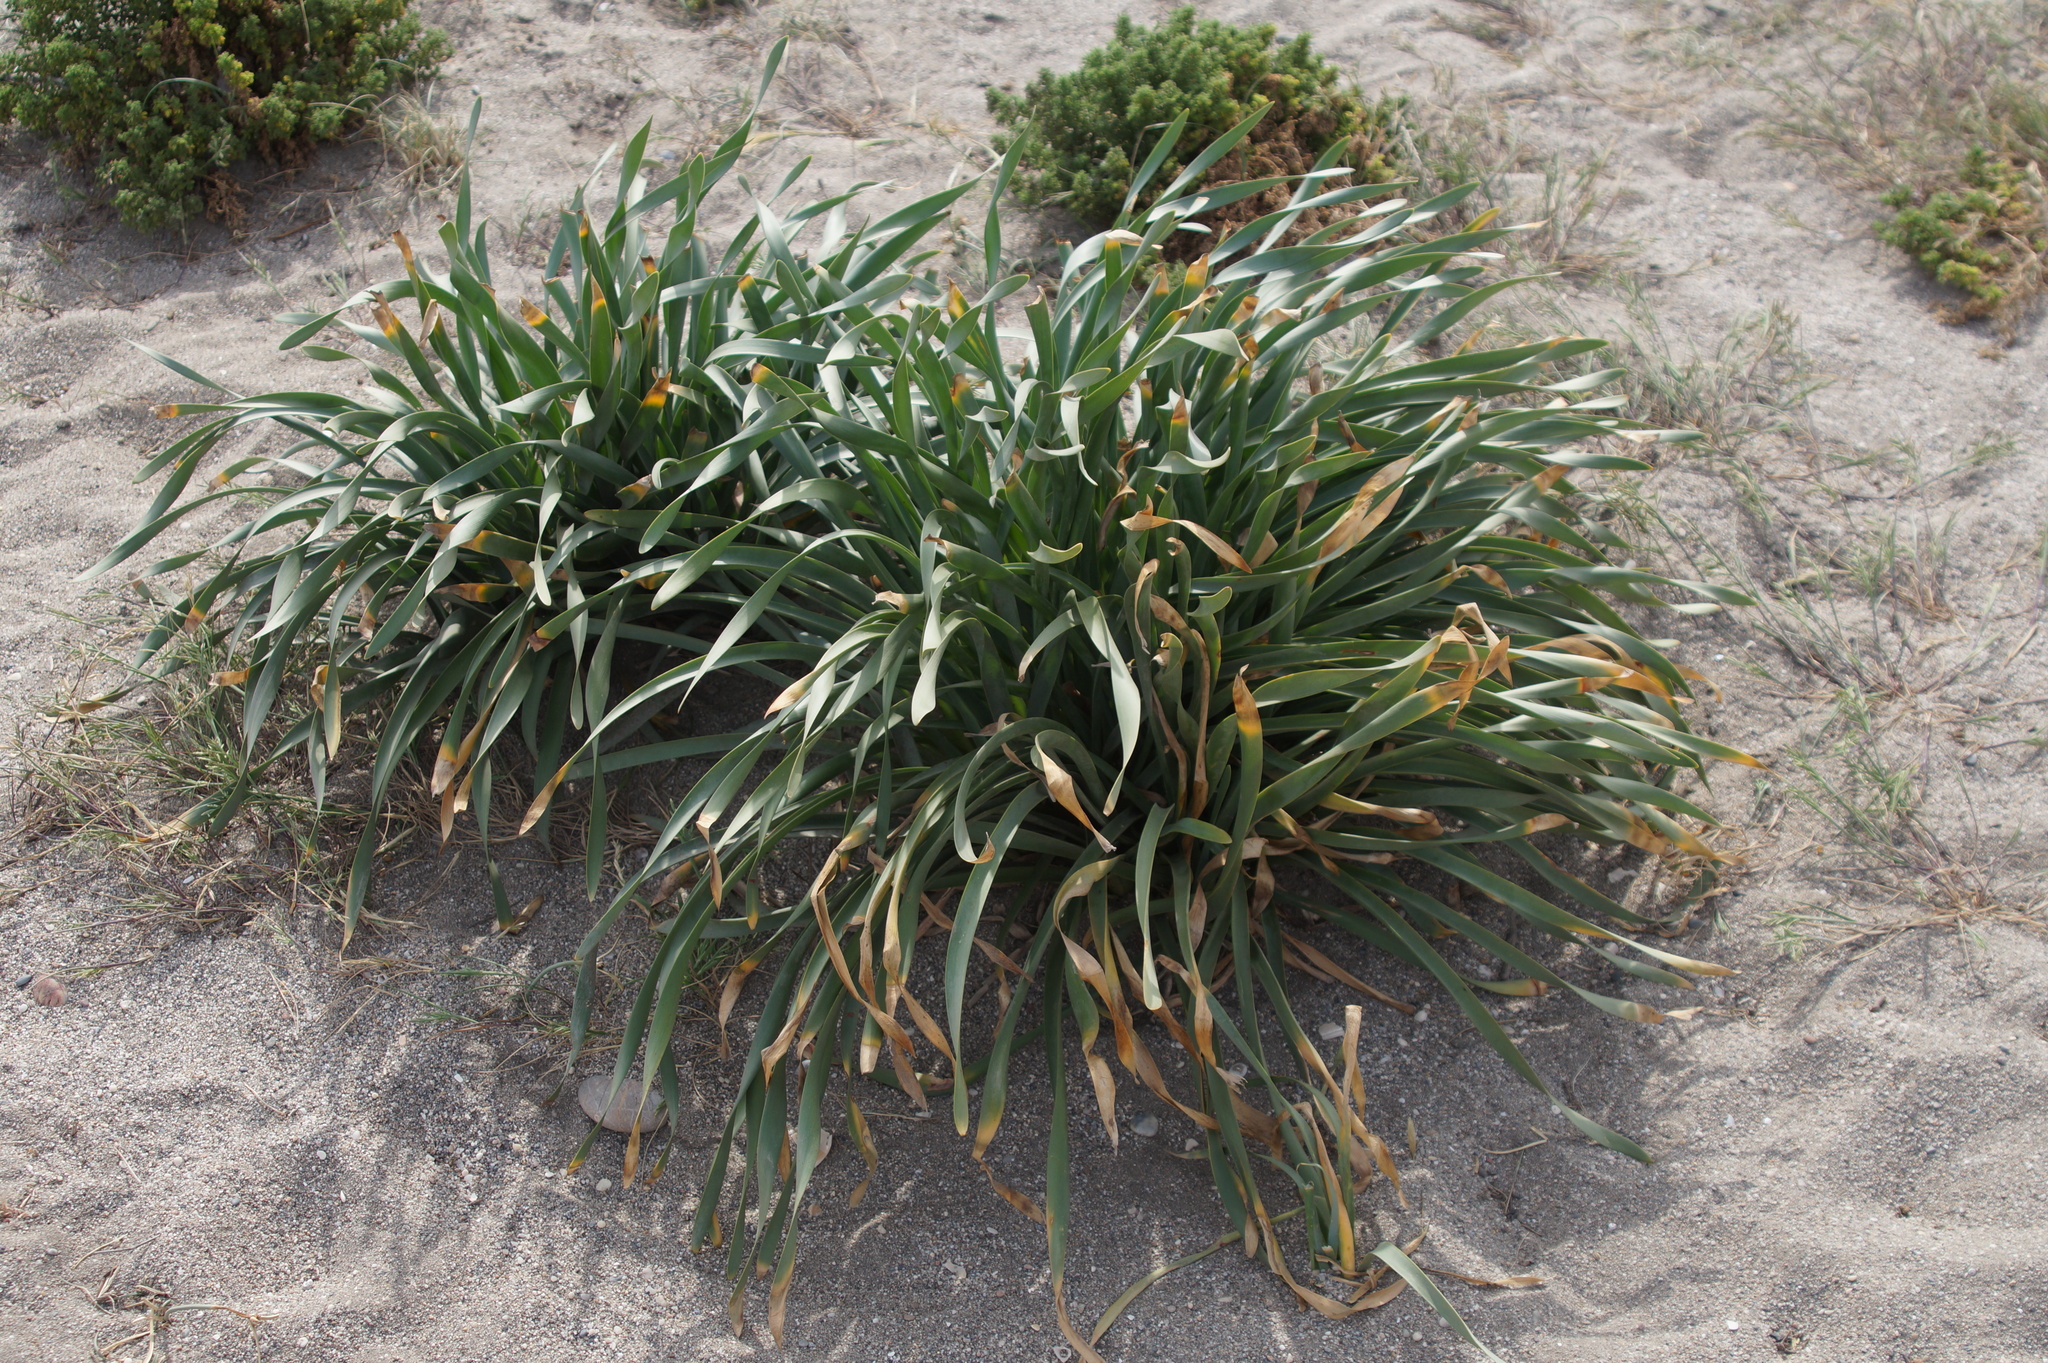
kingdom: Plantae
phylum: Tracheophyta
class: Liliopsida
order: Asparagales
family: Amaryllidaceae
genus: Pancratium
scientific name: Pancratium maritimum
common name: Sea-daffodil
